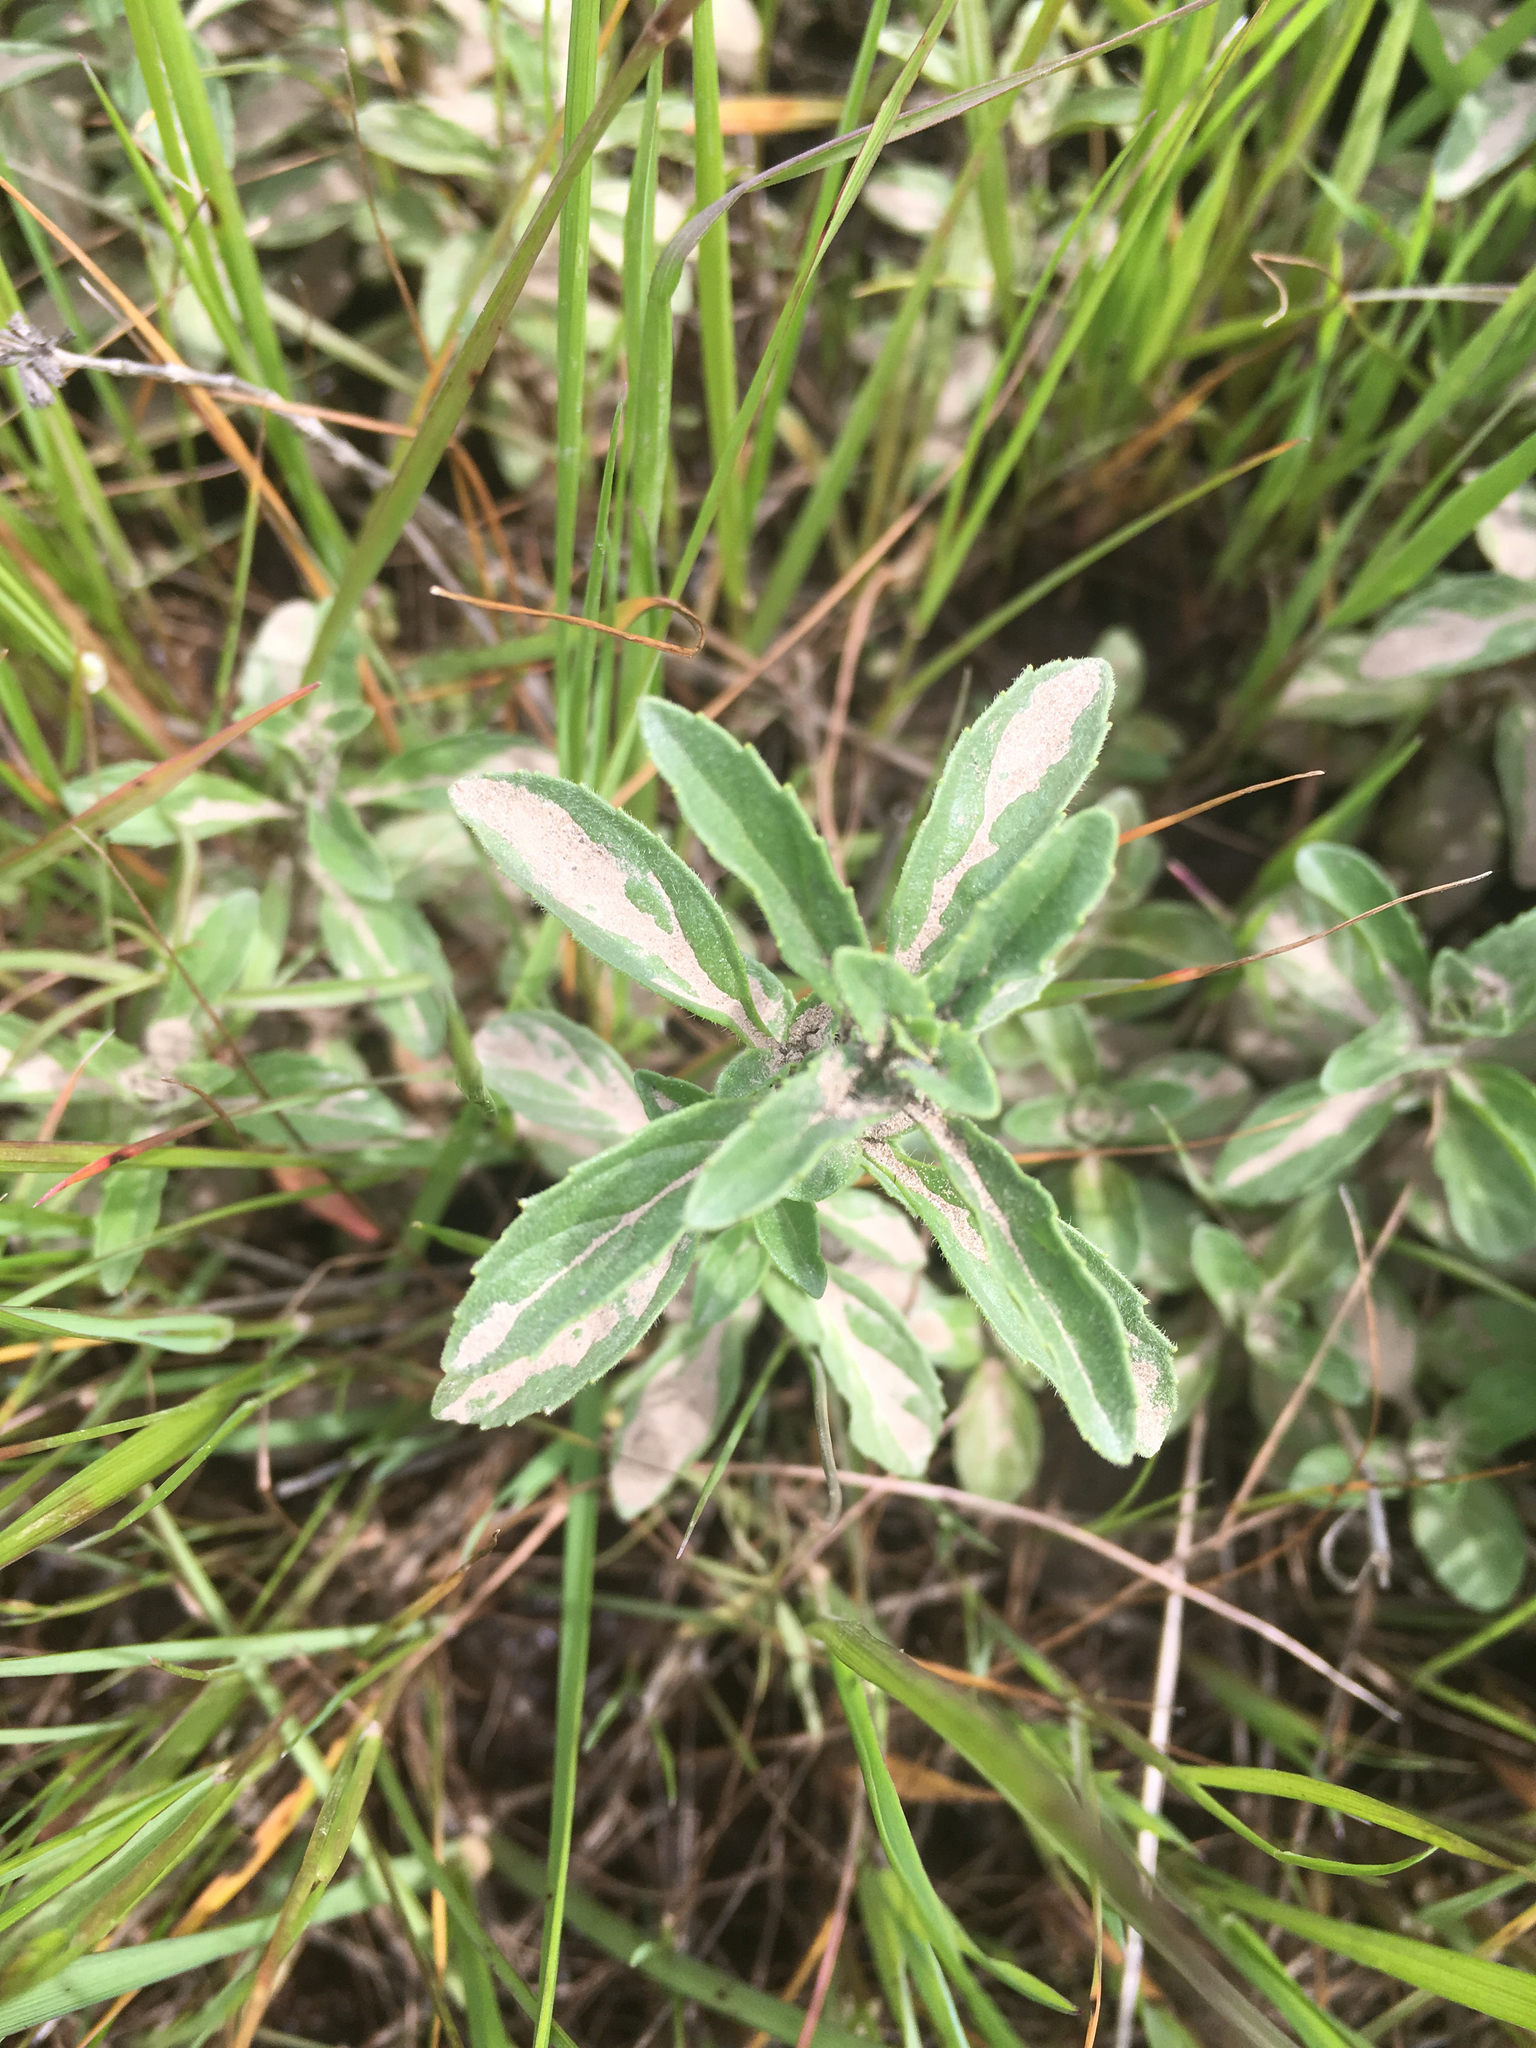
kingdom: Plantae
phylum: Tracheophyta
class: Magnoliopsida
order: Lamiales
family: Lamiaceae
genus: Mentha
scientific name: Mentha pulegium
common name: Pennyroyal
